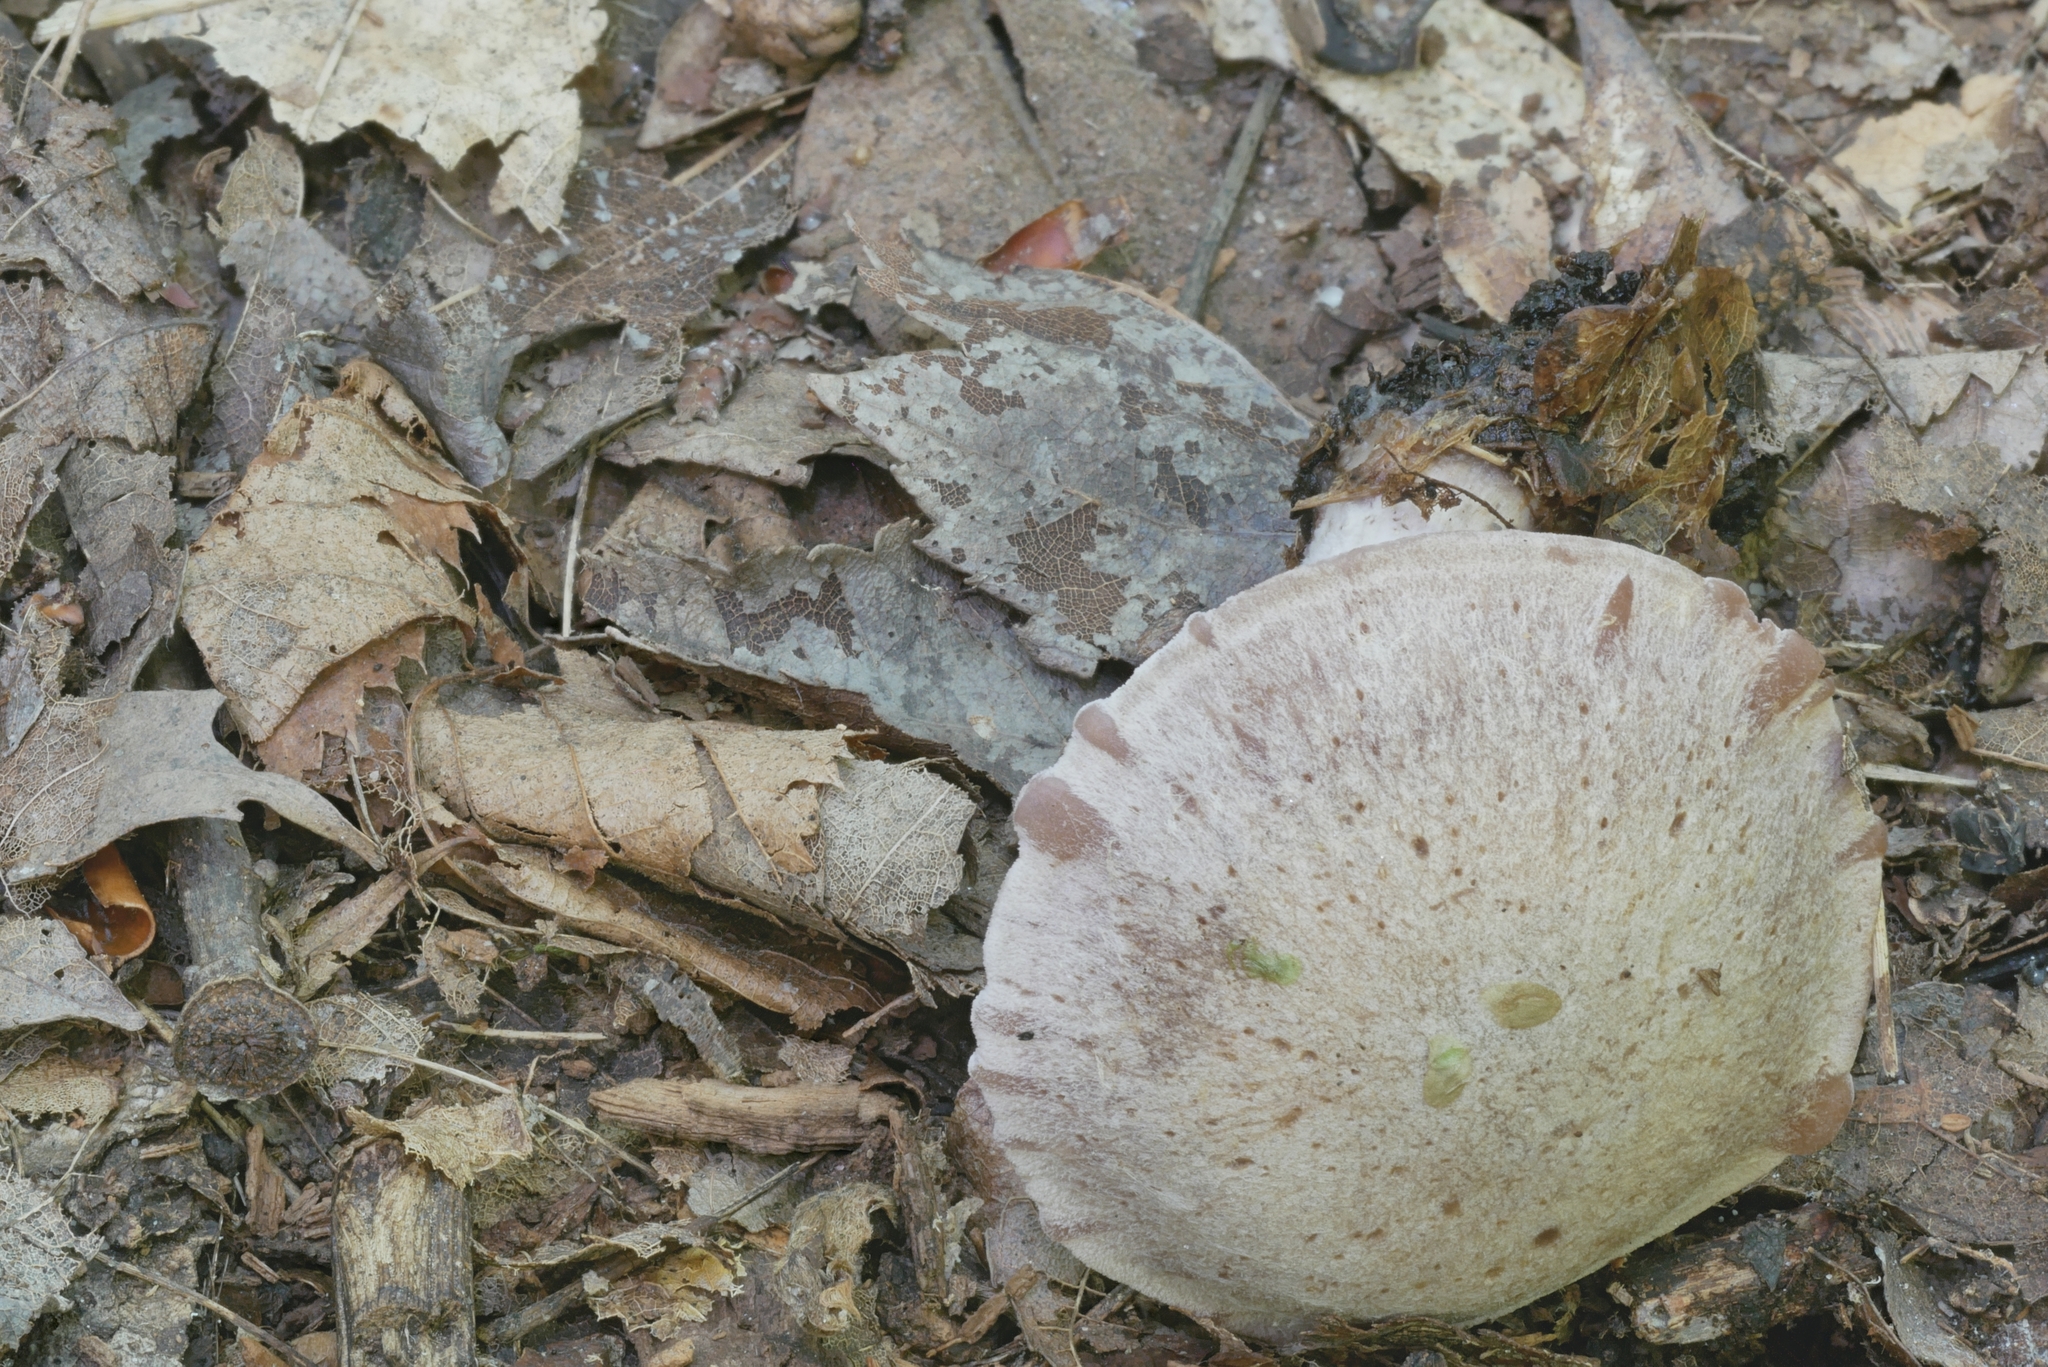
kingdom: Fungi
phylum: Basidiomycota
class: Agaricomycetes
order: Agaricales
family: Cortinariaceae
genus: Cortinarius
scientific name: Cortinarius vagabundus
